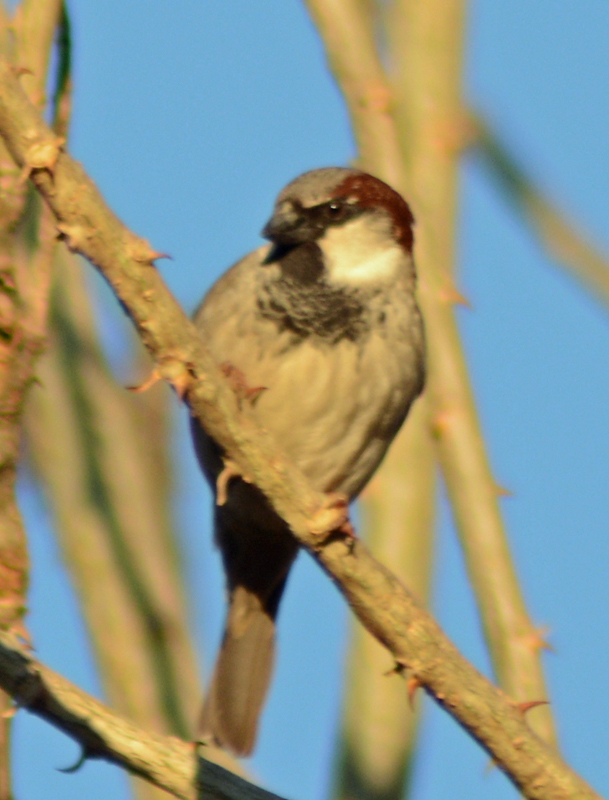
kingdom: Animalia
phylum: Chordata
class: Aves
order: Passeriformes
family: Passeridae
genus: Passer
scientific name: Passer domesticus
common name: House sparrow
